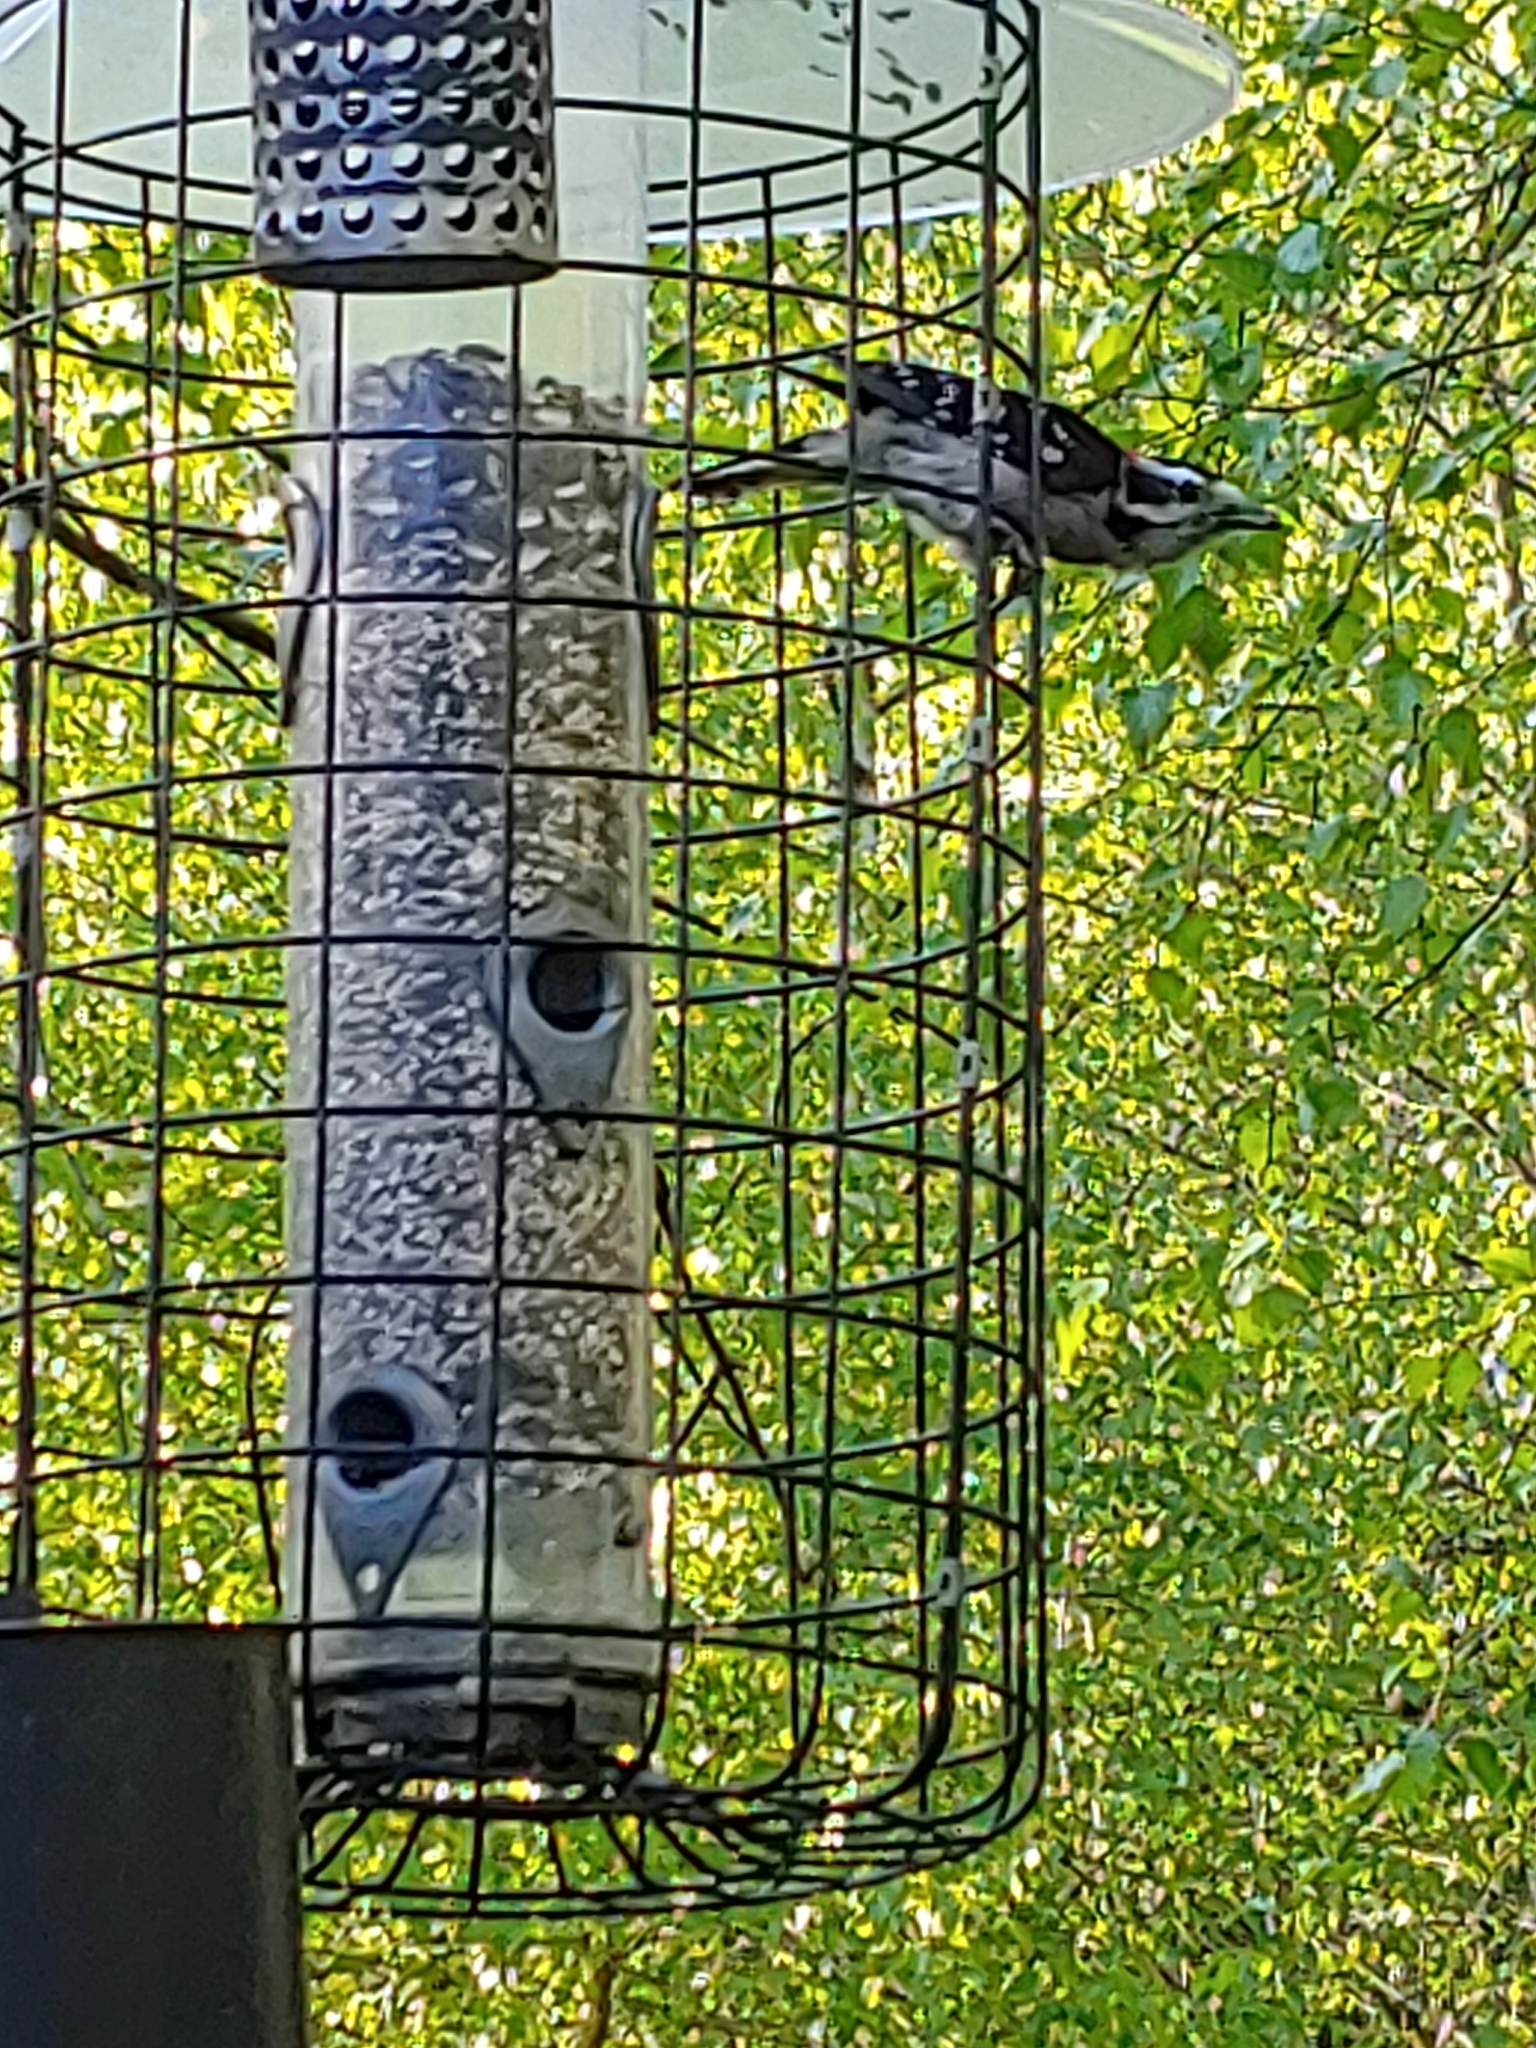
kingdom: Animalia
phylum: Chordata
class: Aves
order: Piciformes
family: Picidae
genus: Dryobates
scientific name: Dryobates pubescens
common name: Downy woodpecker
